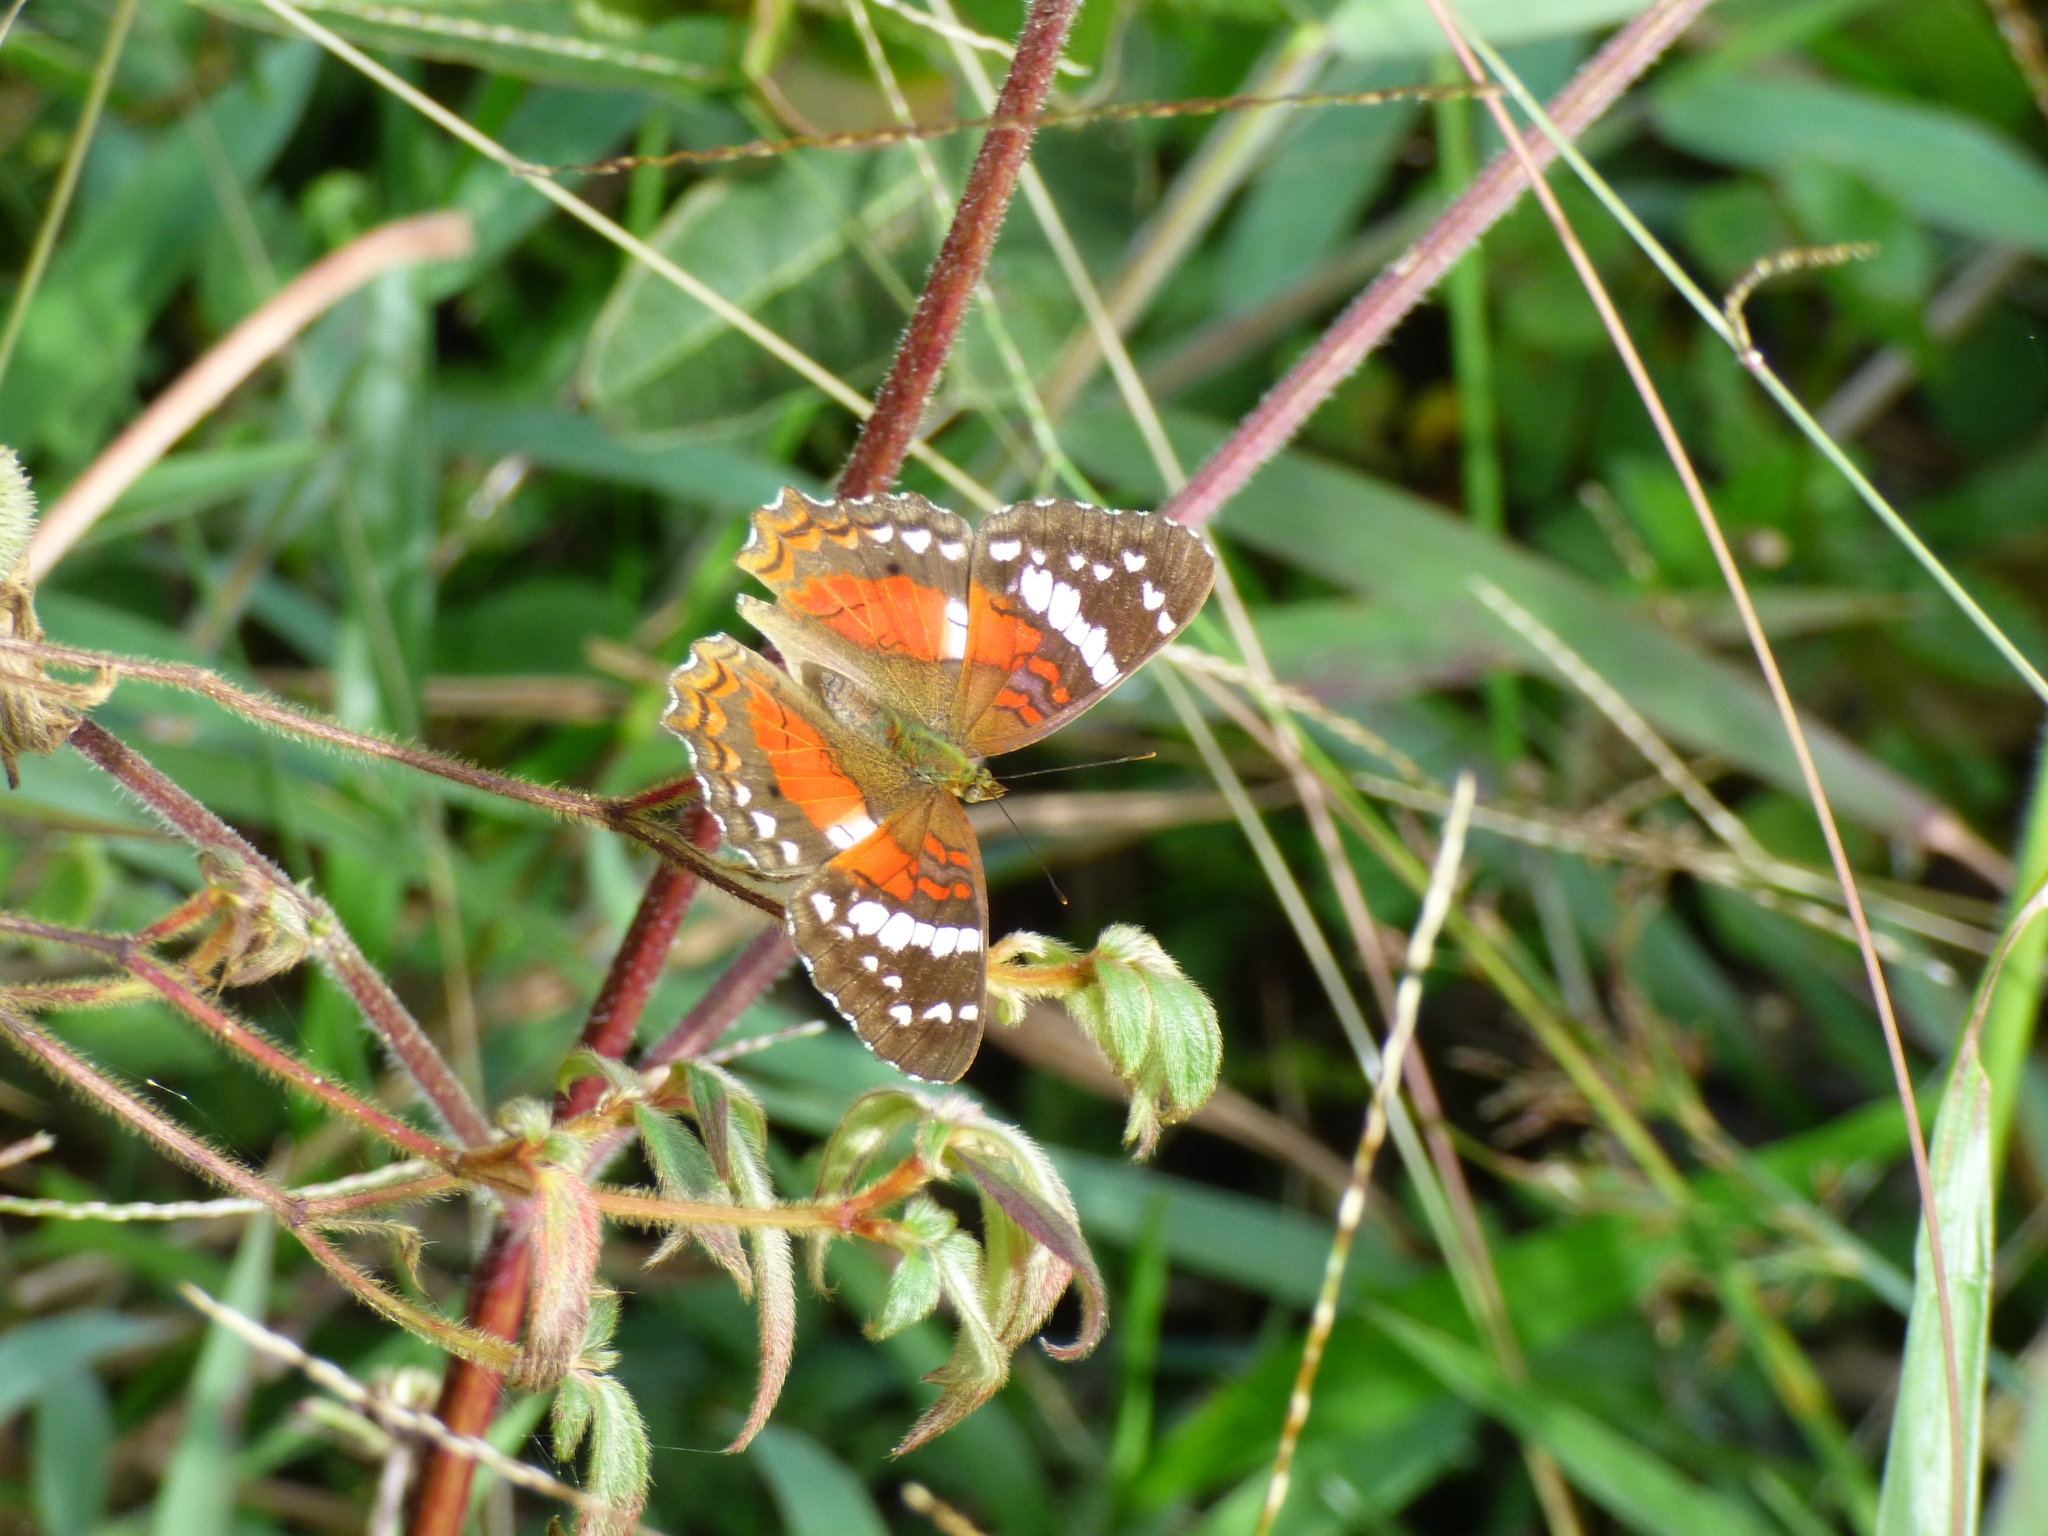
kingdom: Animalia
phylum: Arthropoda
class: Insecta
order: Lepidoptera
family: Nymphalidae
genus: Anartia
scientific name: Anartia amathea
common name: Red peacock
